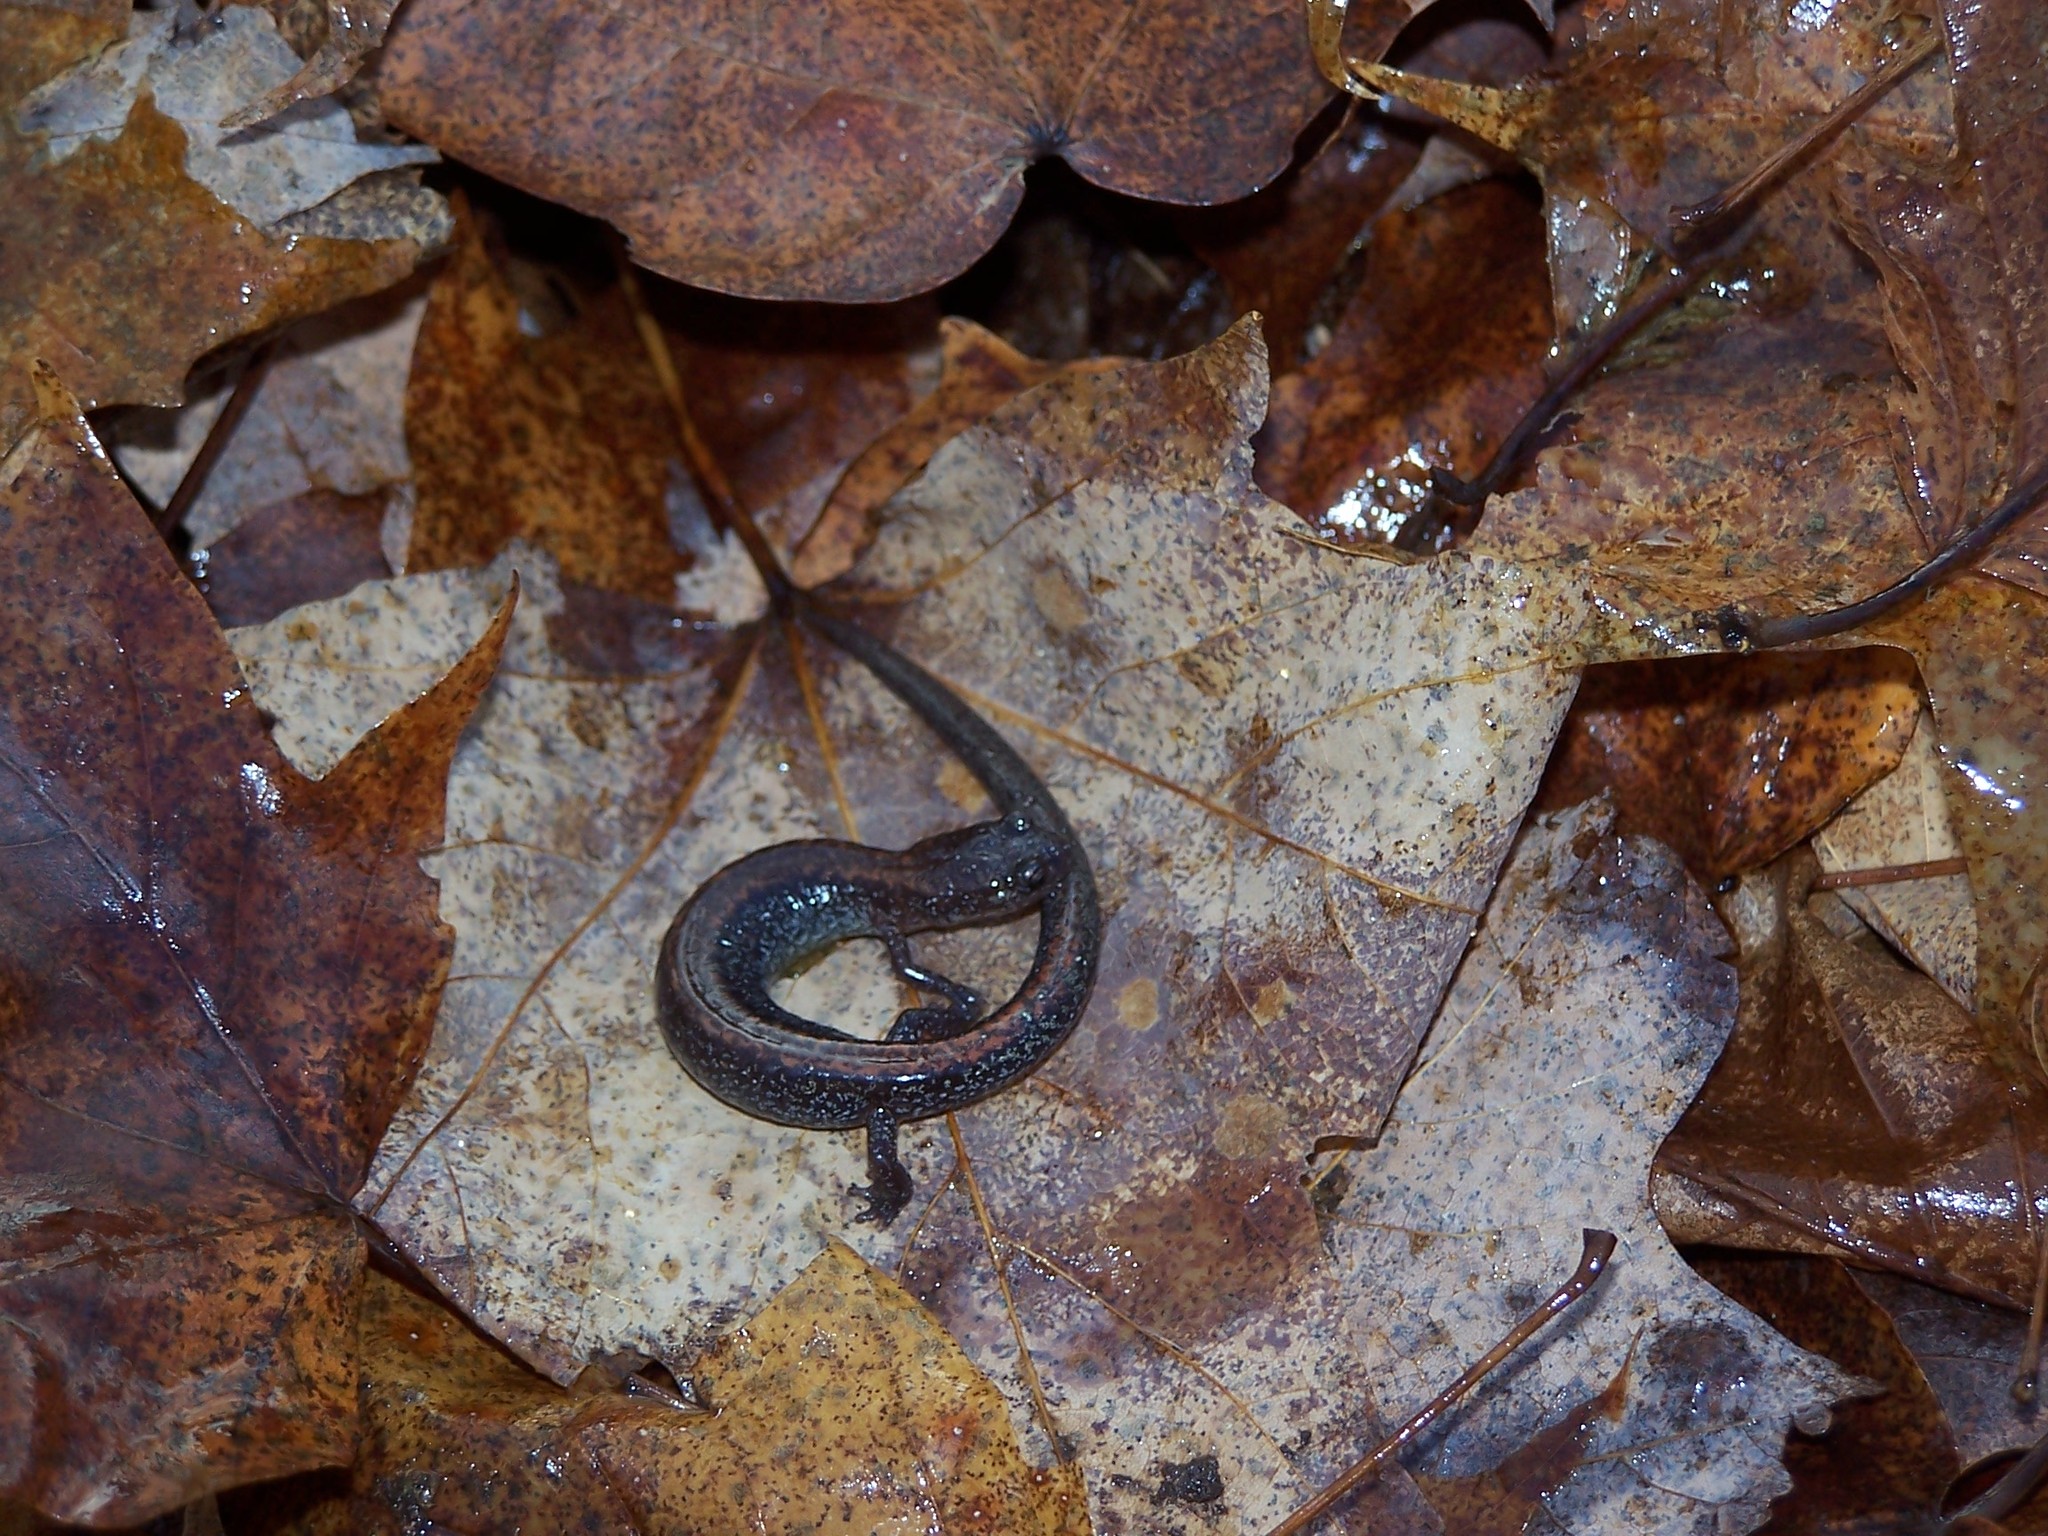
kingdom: Animalia
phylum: Chordata
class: Amphibia
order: Caudata
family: Plethodontidae
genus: Plethodon
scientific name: Plethodon cinereus
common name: Redback salamander
